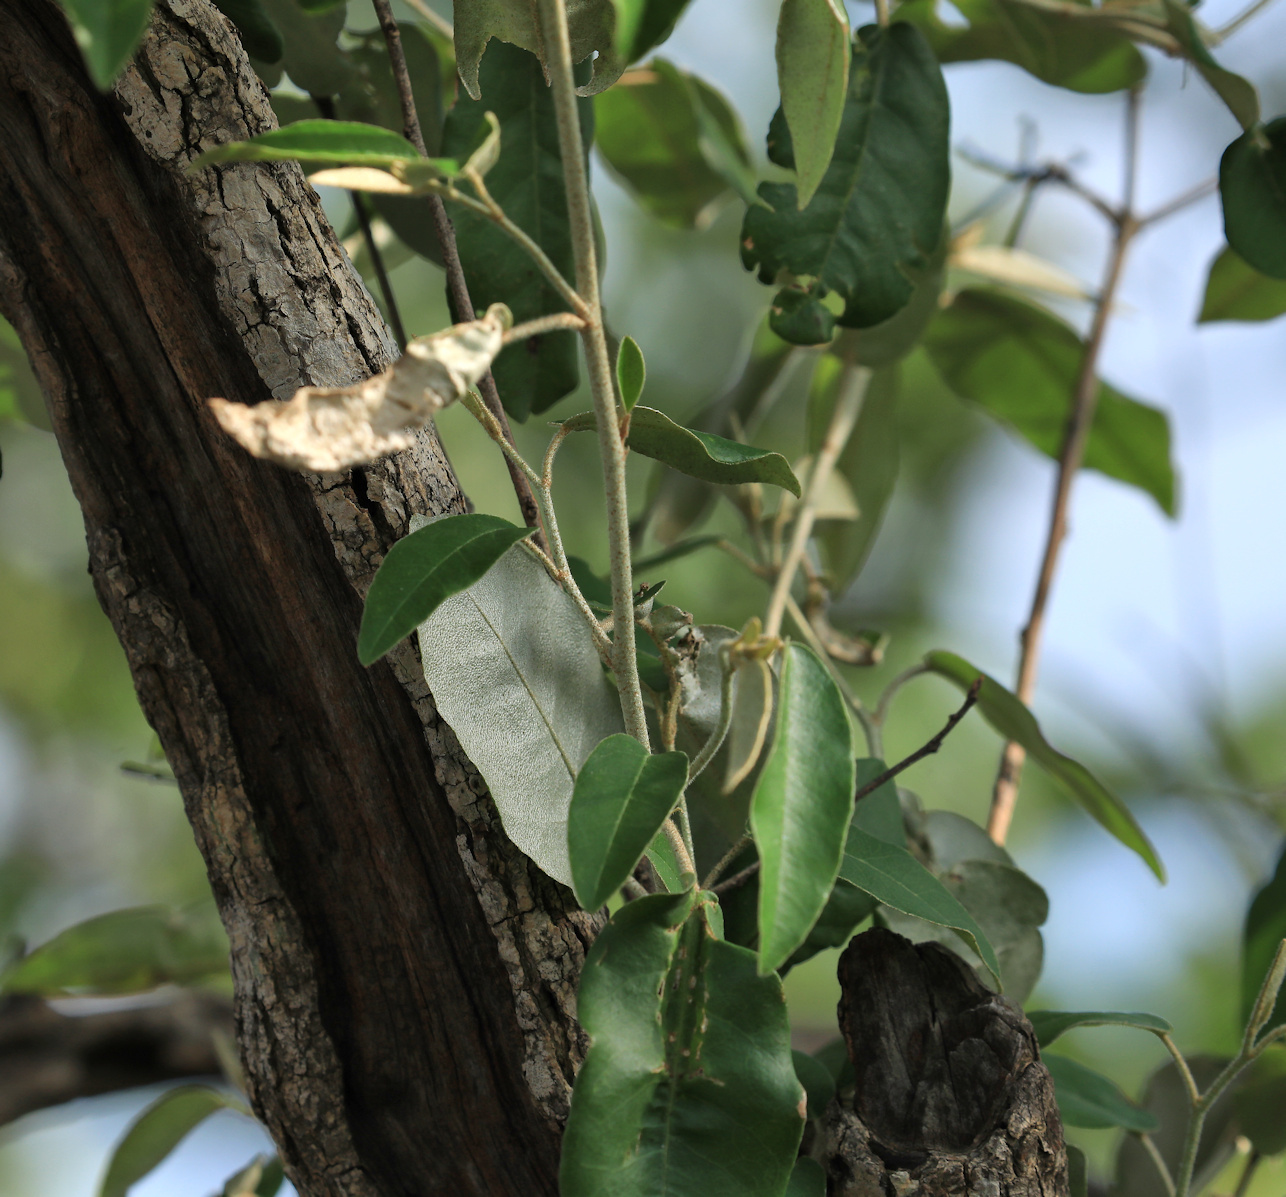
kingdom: Plantae
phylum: Tracheophyta
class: Magnoliopsida
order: Malpighiales
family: Euphorbiaceae
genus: Croton
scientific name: Croton gratissimus
